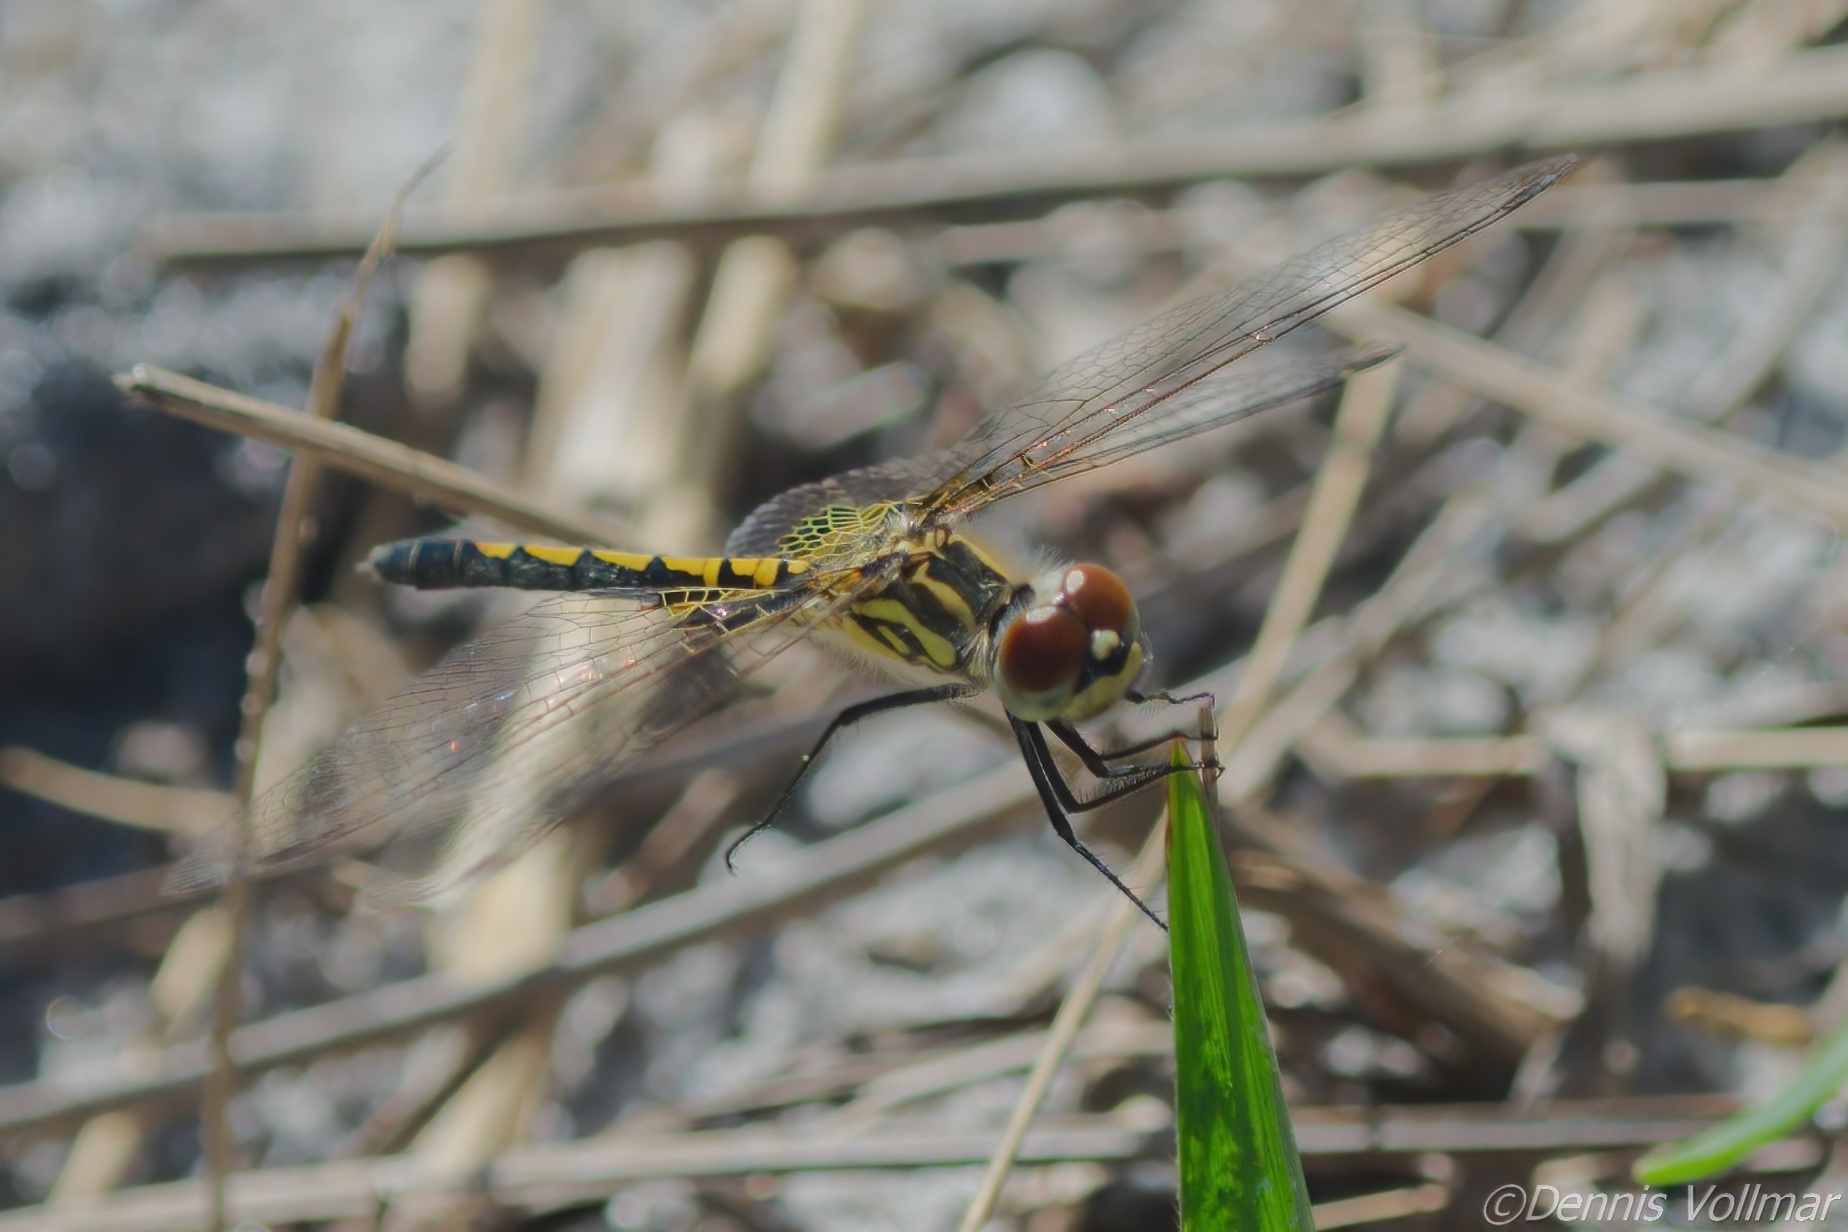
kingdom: Animalia
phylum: Arthropoda
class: Insecta
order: Odonata
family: Libellulidae
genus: Celithemis
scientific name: Celithemis ornata
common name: Ornate pennant
